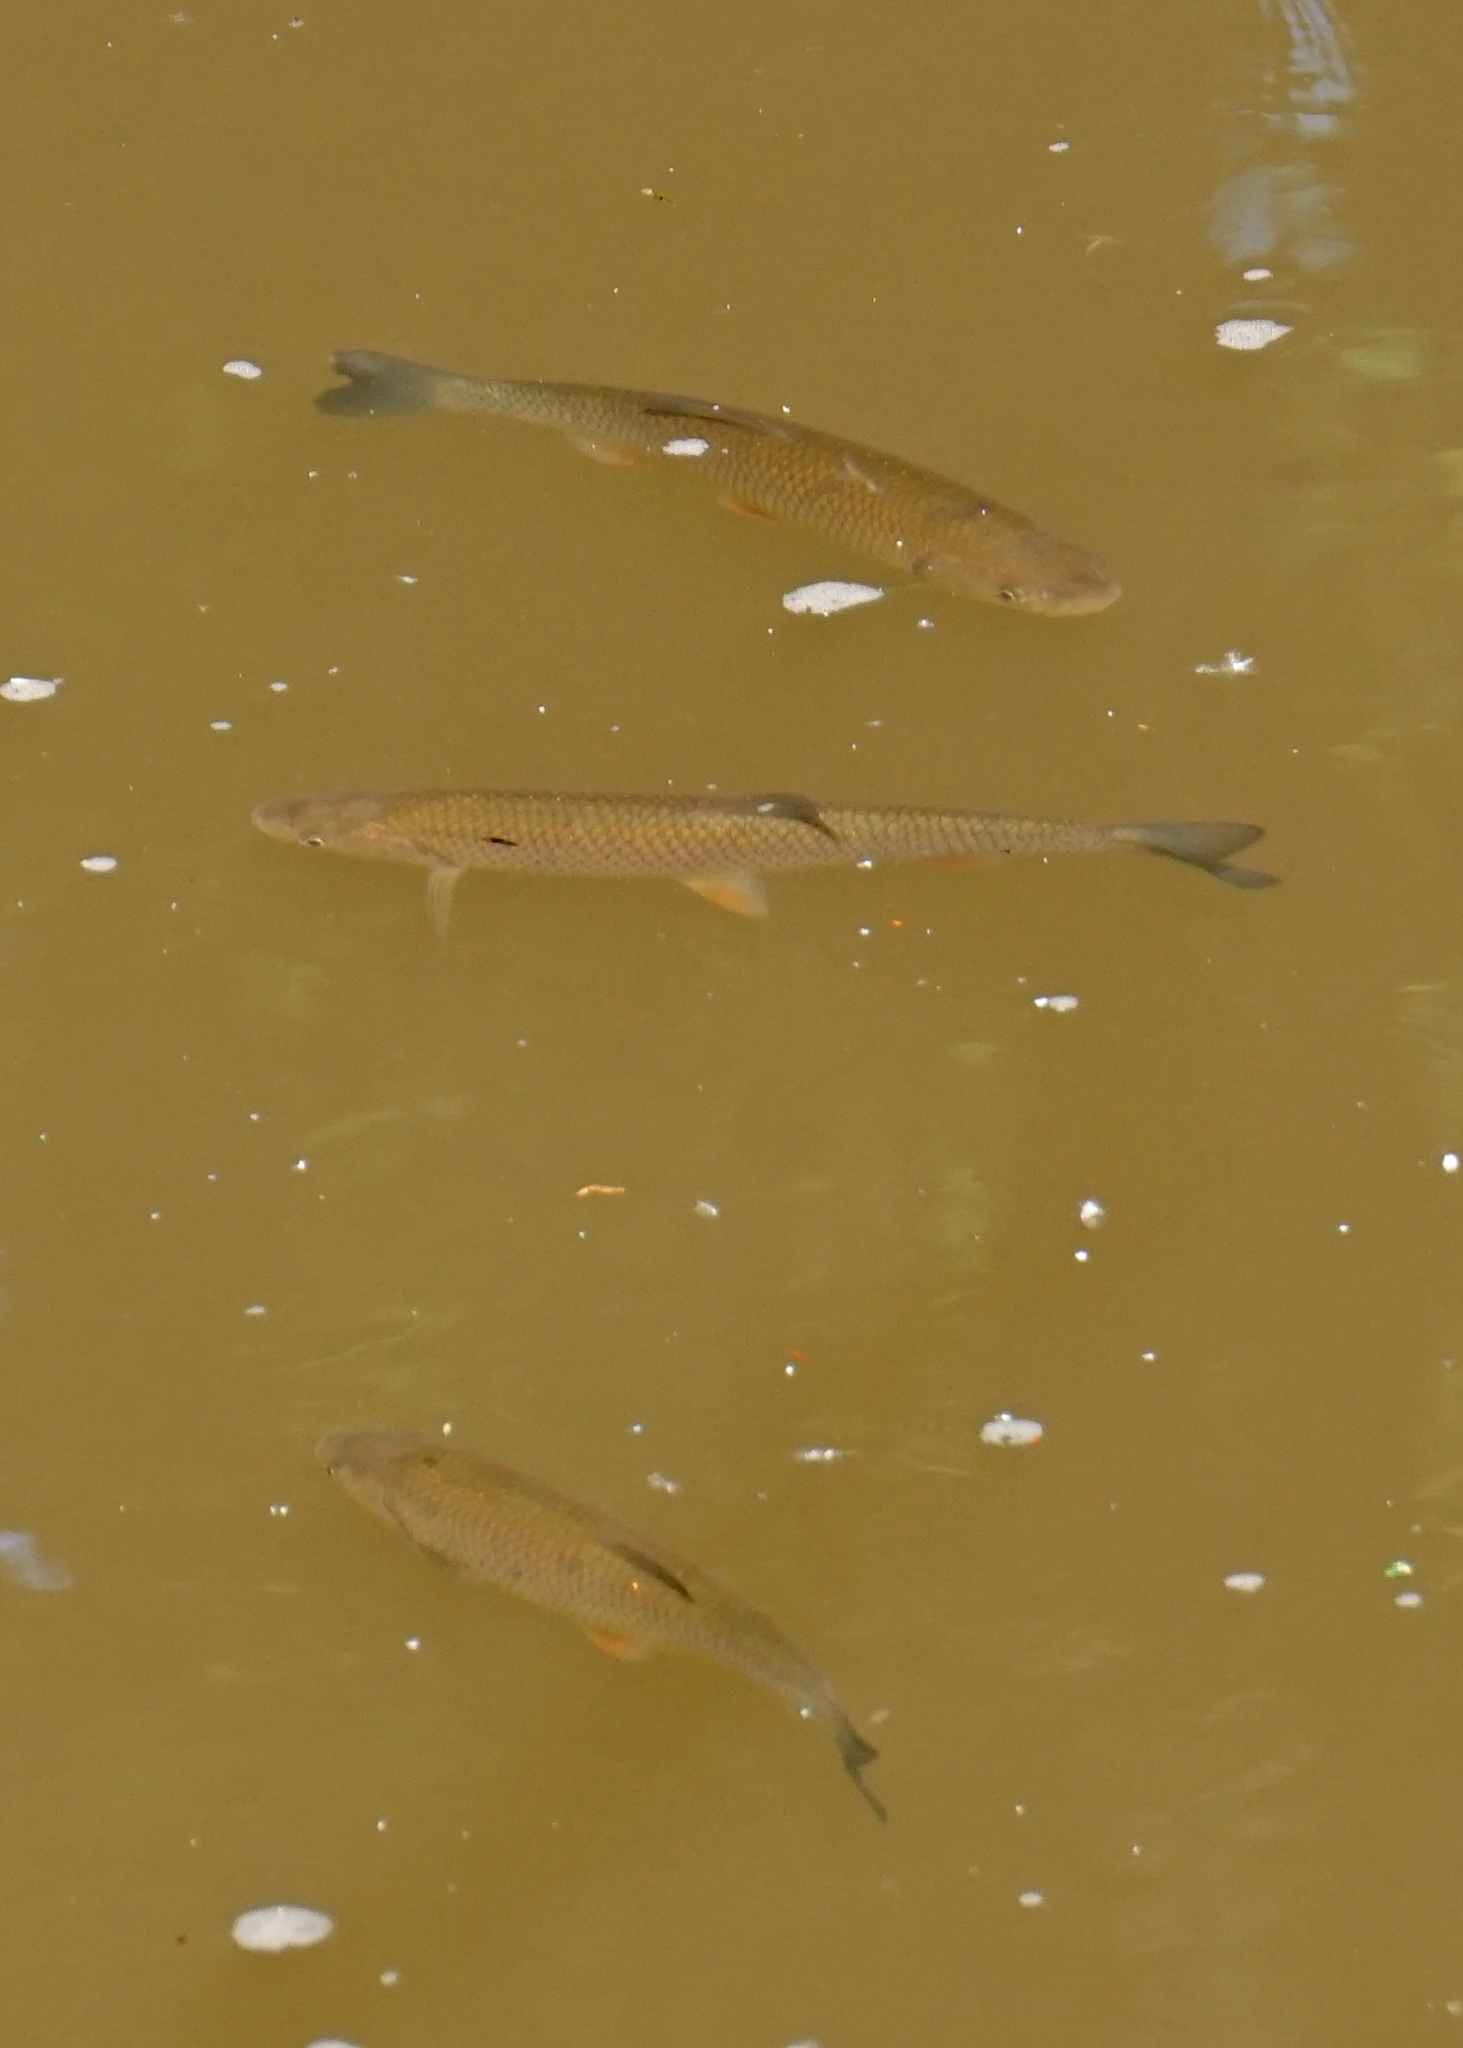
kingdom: Animalia
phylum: Chordata
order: Cypriniformes
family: Cyprinidae
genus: Squalius
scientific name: Squalius cephalus
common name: Chub
